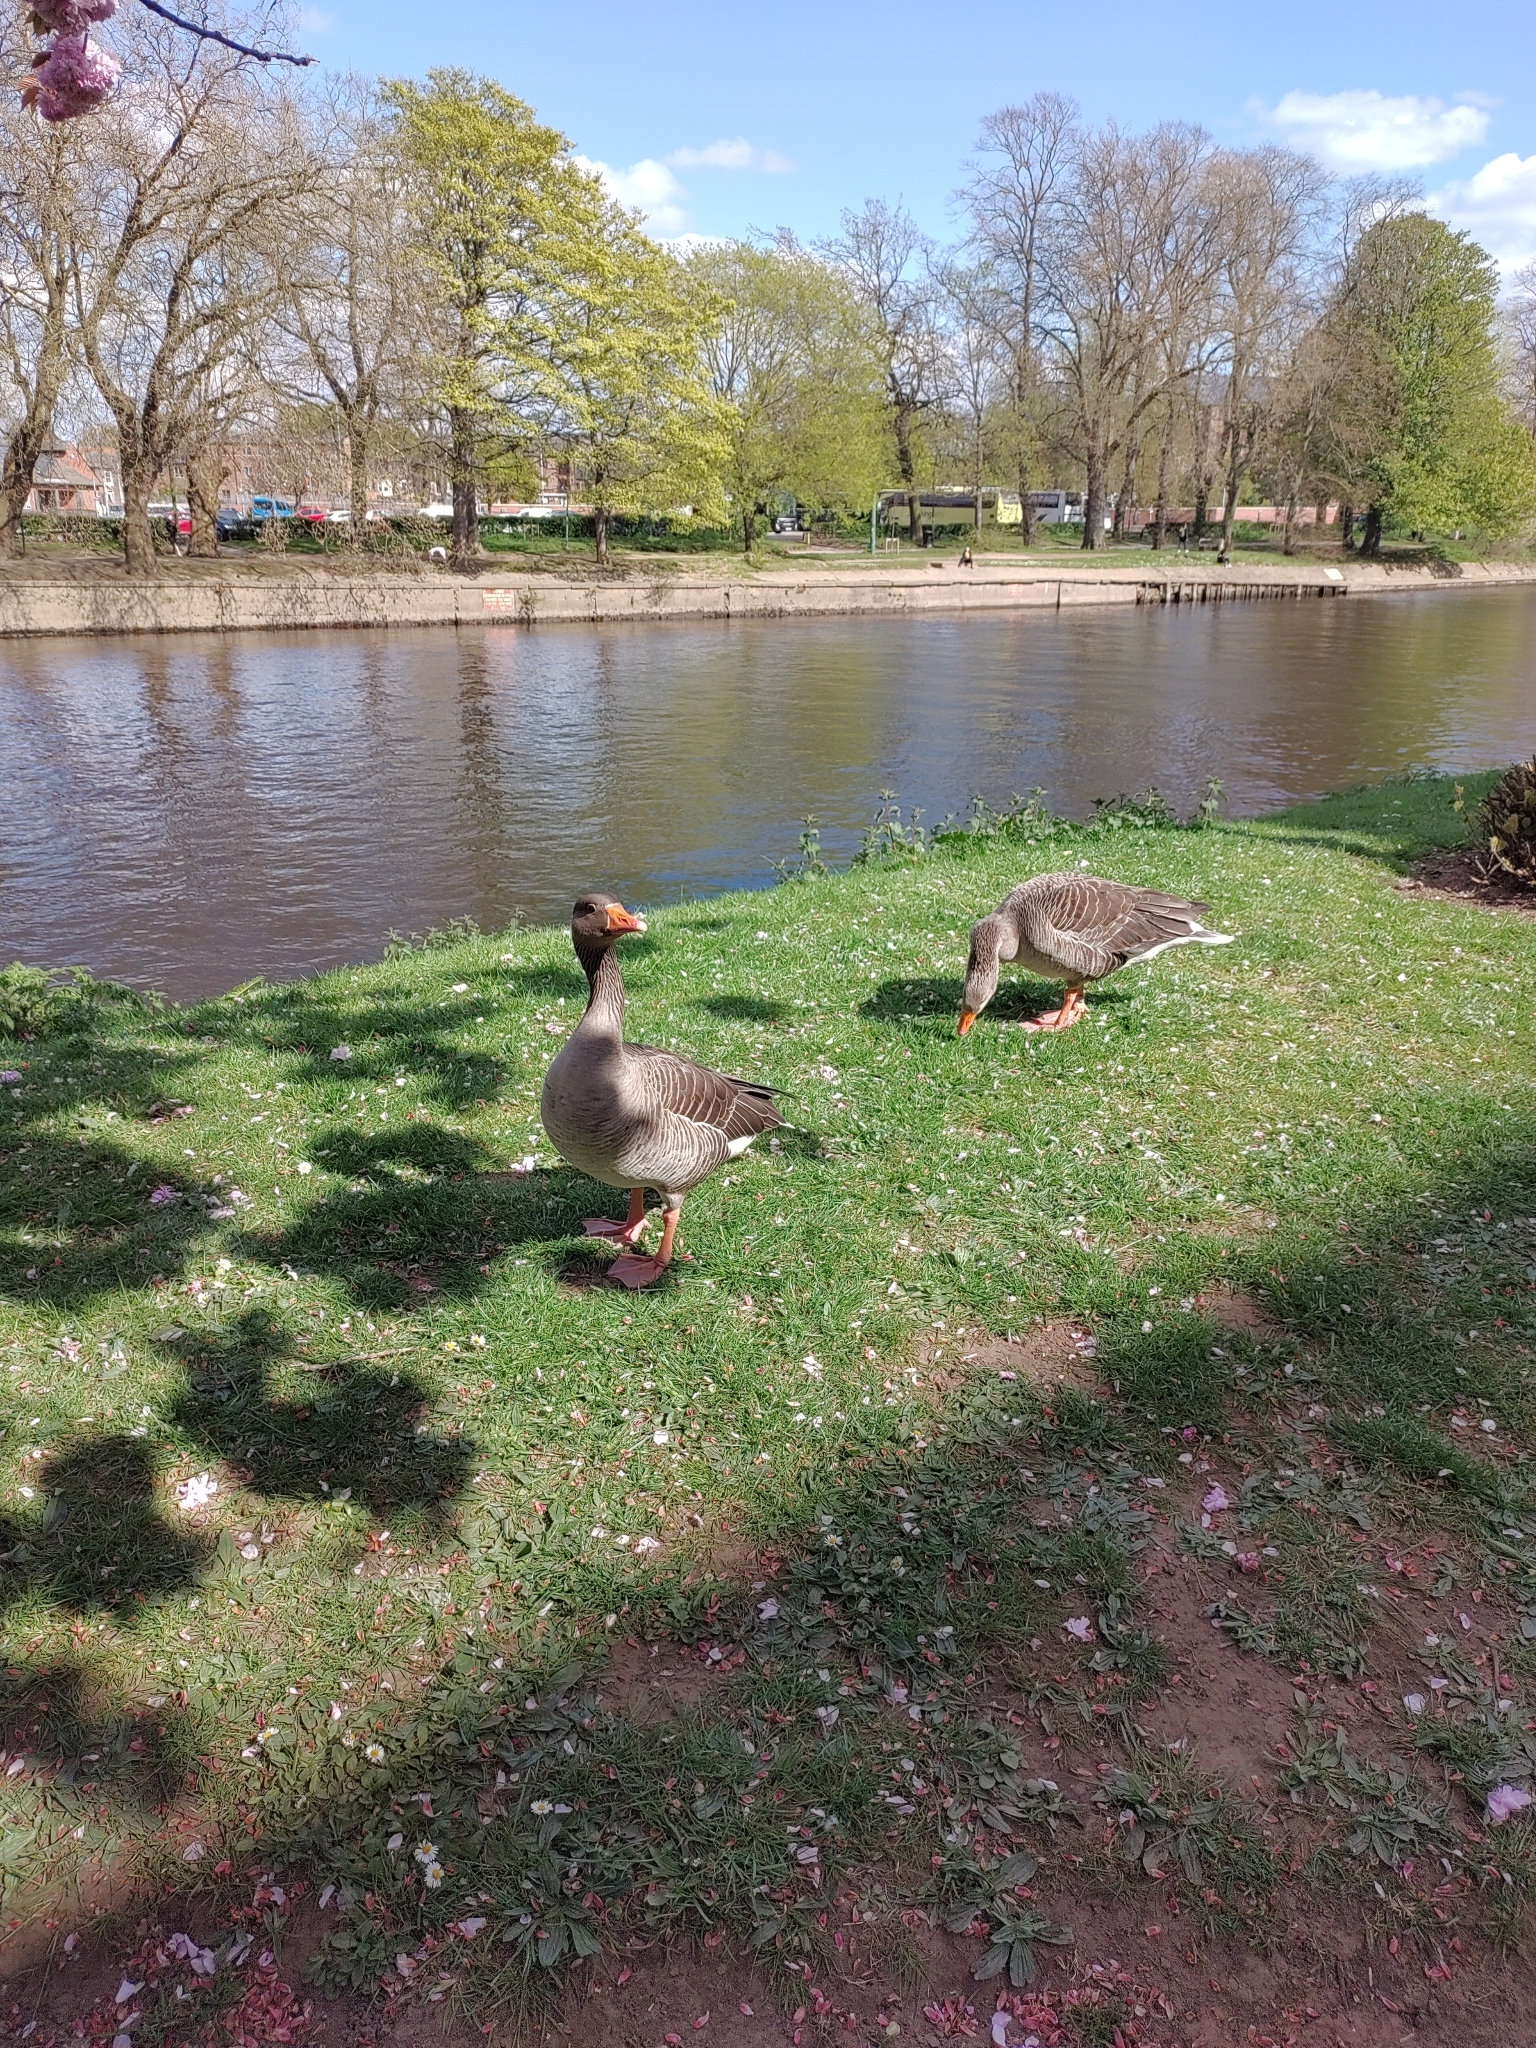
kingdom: Animalia
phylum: Chordata
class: Aves
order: Anseriformes
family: Anatidae
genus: Anser
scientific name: Anser anser
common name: Greylag goose
